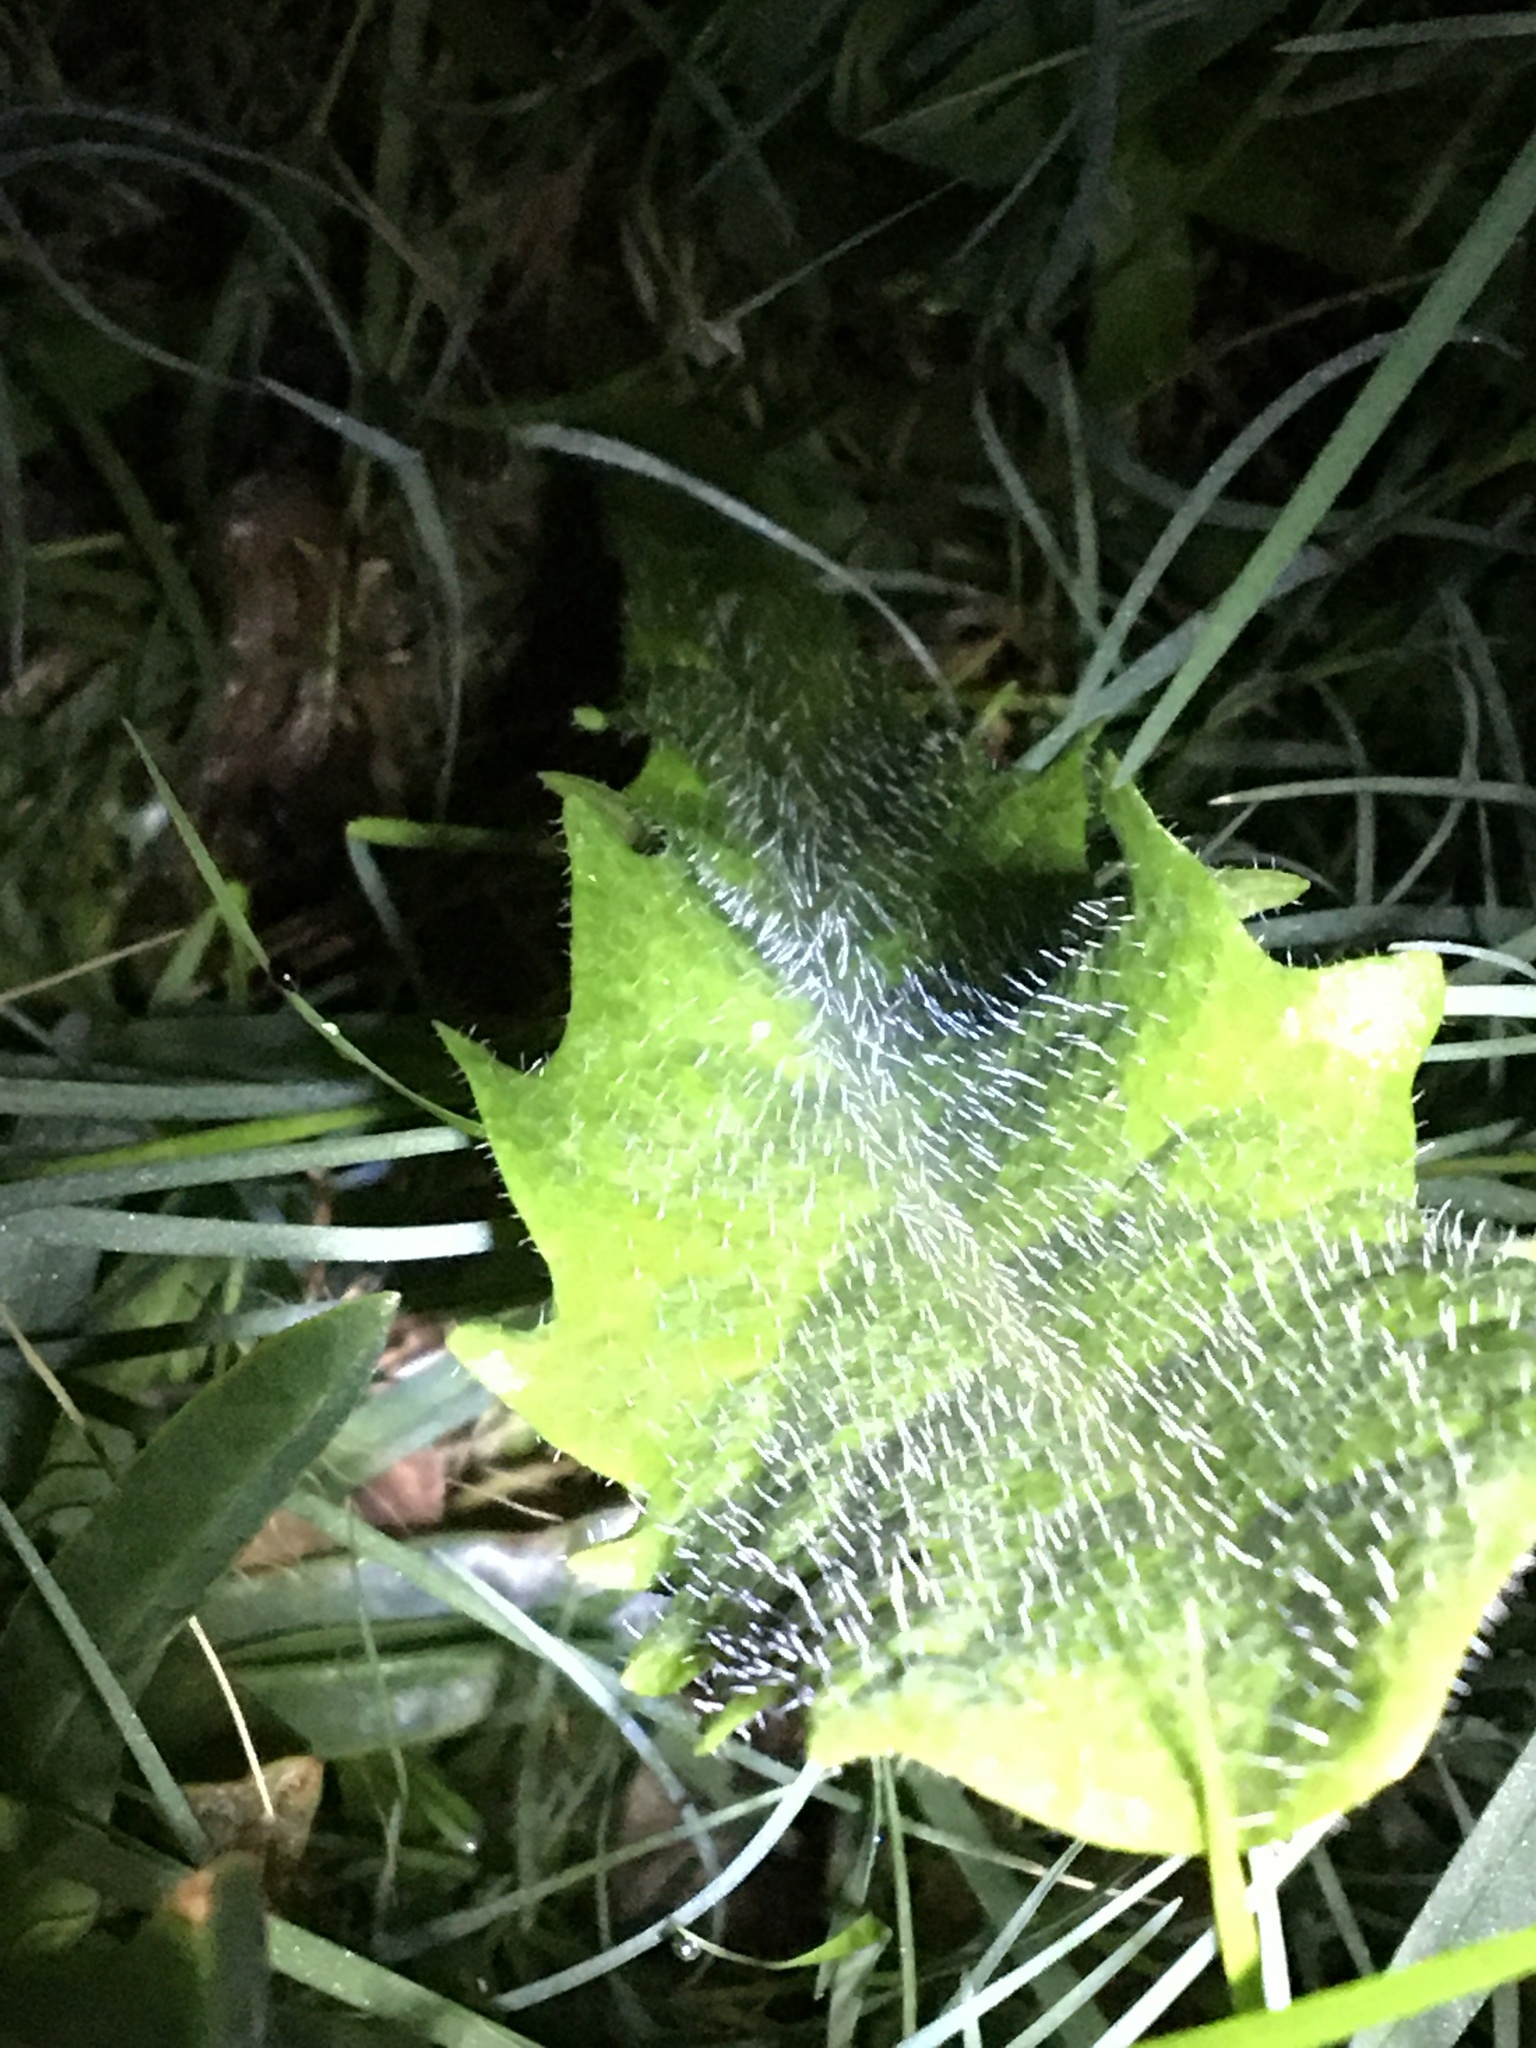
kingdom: Plantae
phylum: Tracheophyta
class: Magnoliopsida
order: Asterales
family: Asteraceae
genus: Hypochaeris
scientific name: Hypochaeris radicata
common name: Flatweed
